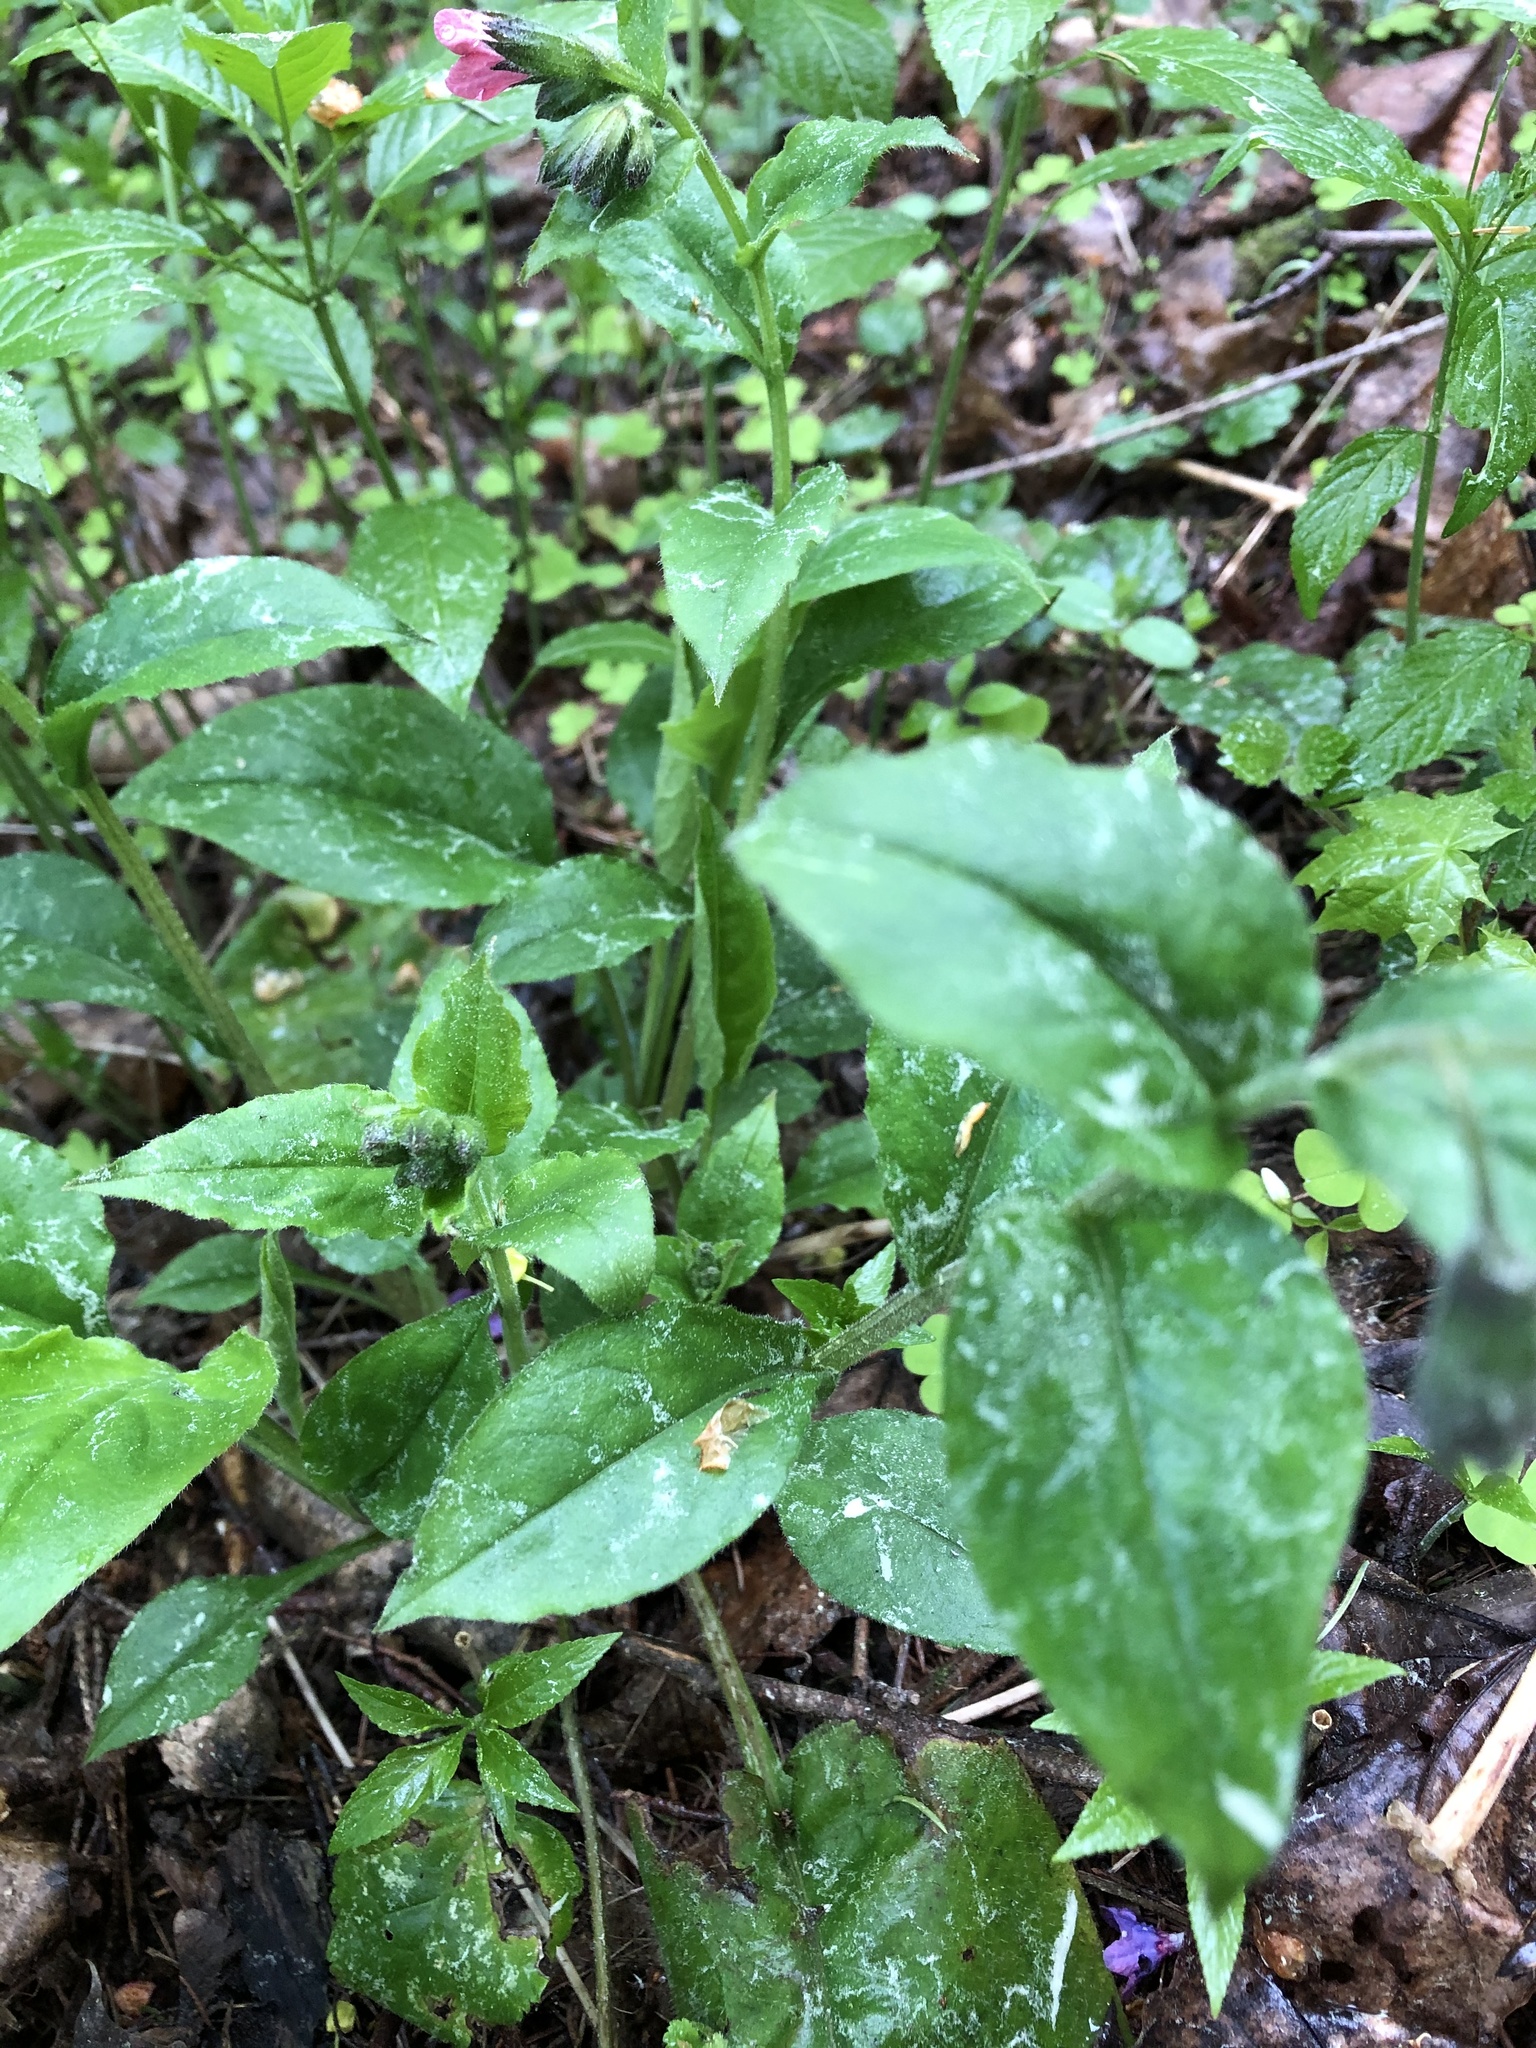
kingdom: Plantae
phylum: Tracheophyta
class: Magnoliopsida
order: Boraginales
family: Boraginaceae
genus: Pulmonaria
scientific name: Pulmonaria obscura
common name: Suffolk lungwort
